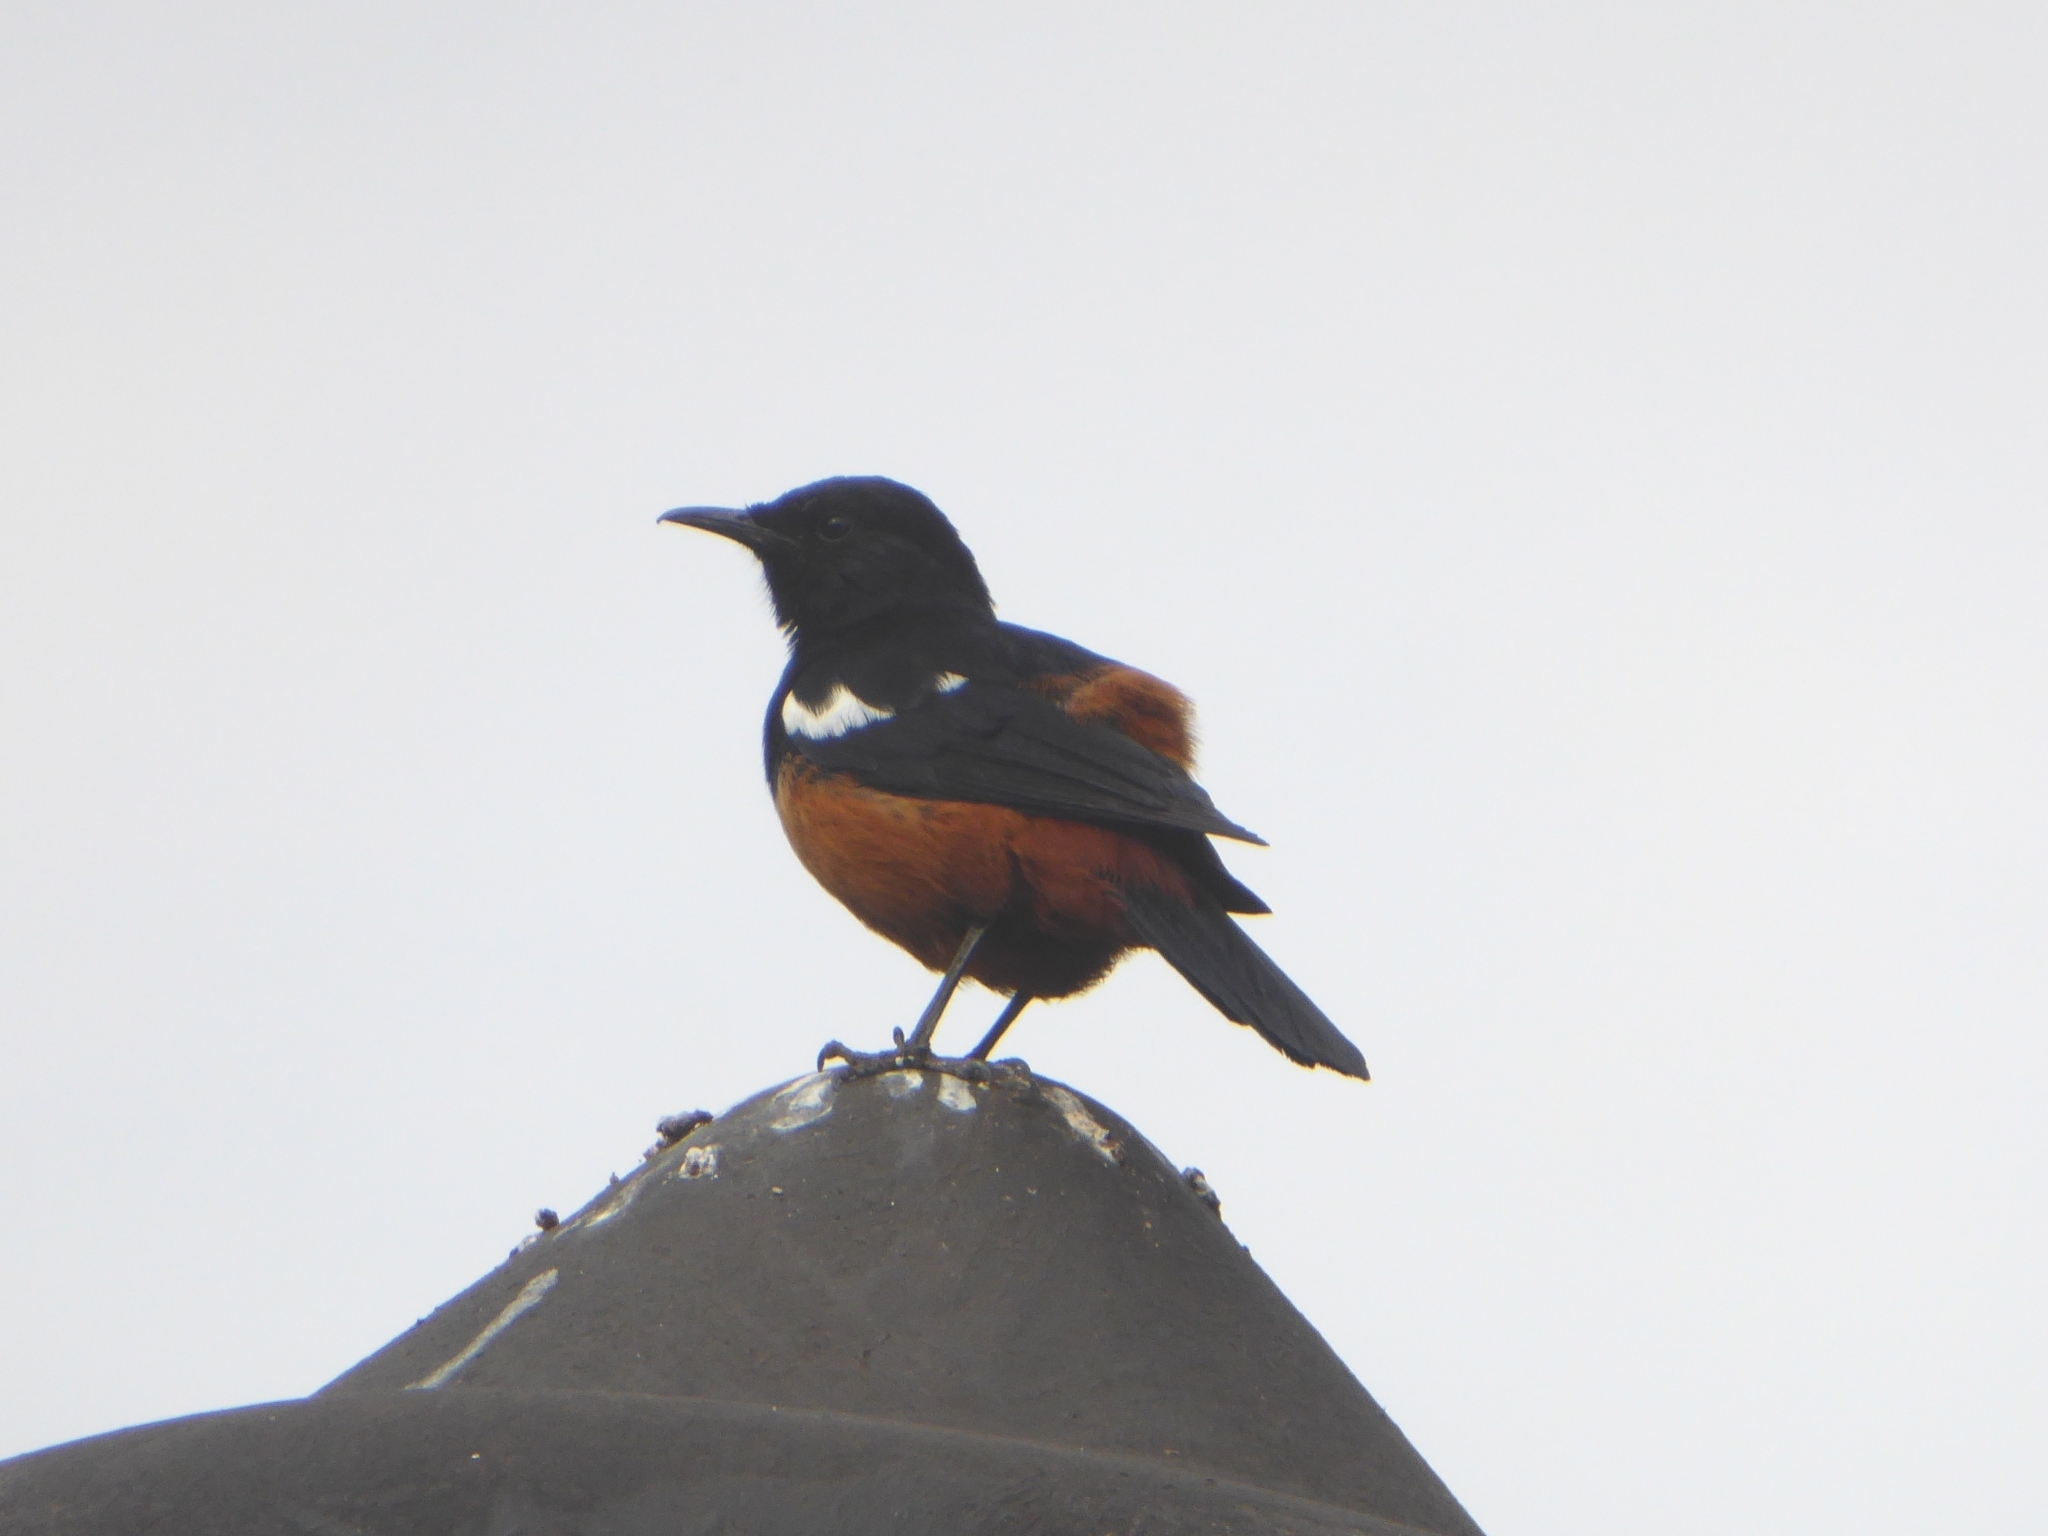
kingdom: Animalia
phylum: Chordata
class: Aves
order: Passeriformes
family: Muscicapidae
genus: Thamnolaea
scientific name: Thamnolaea cinnamomeiventris
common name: Mocking cliff chat
